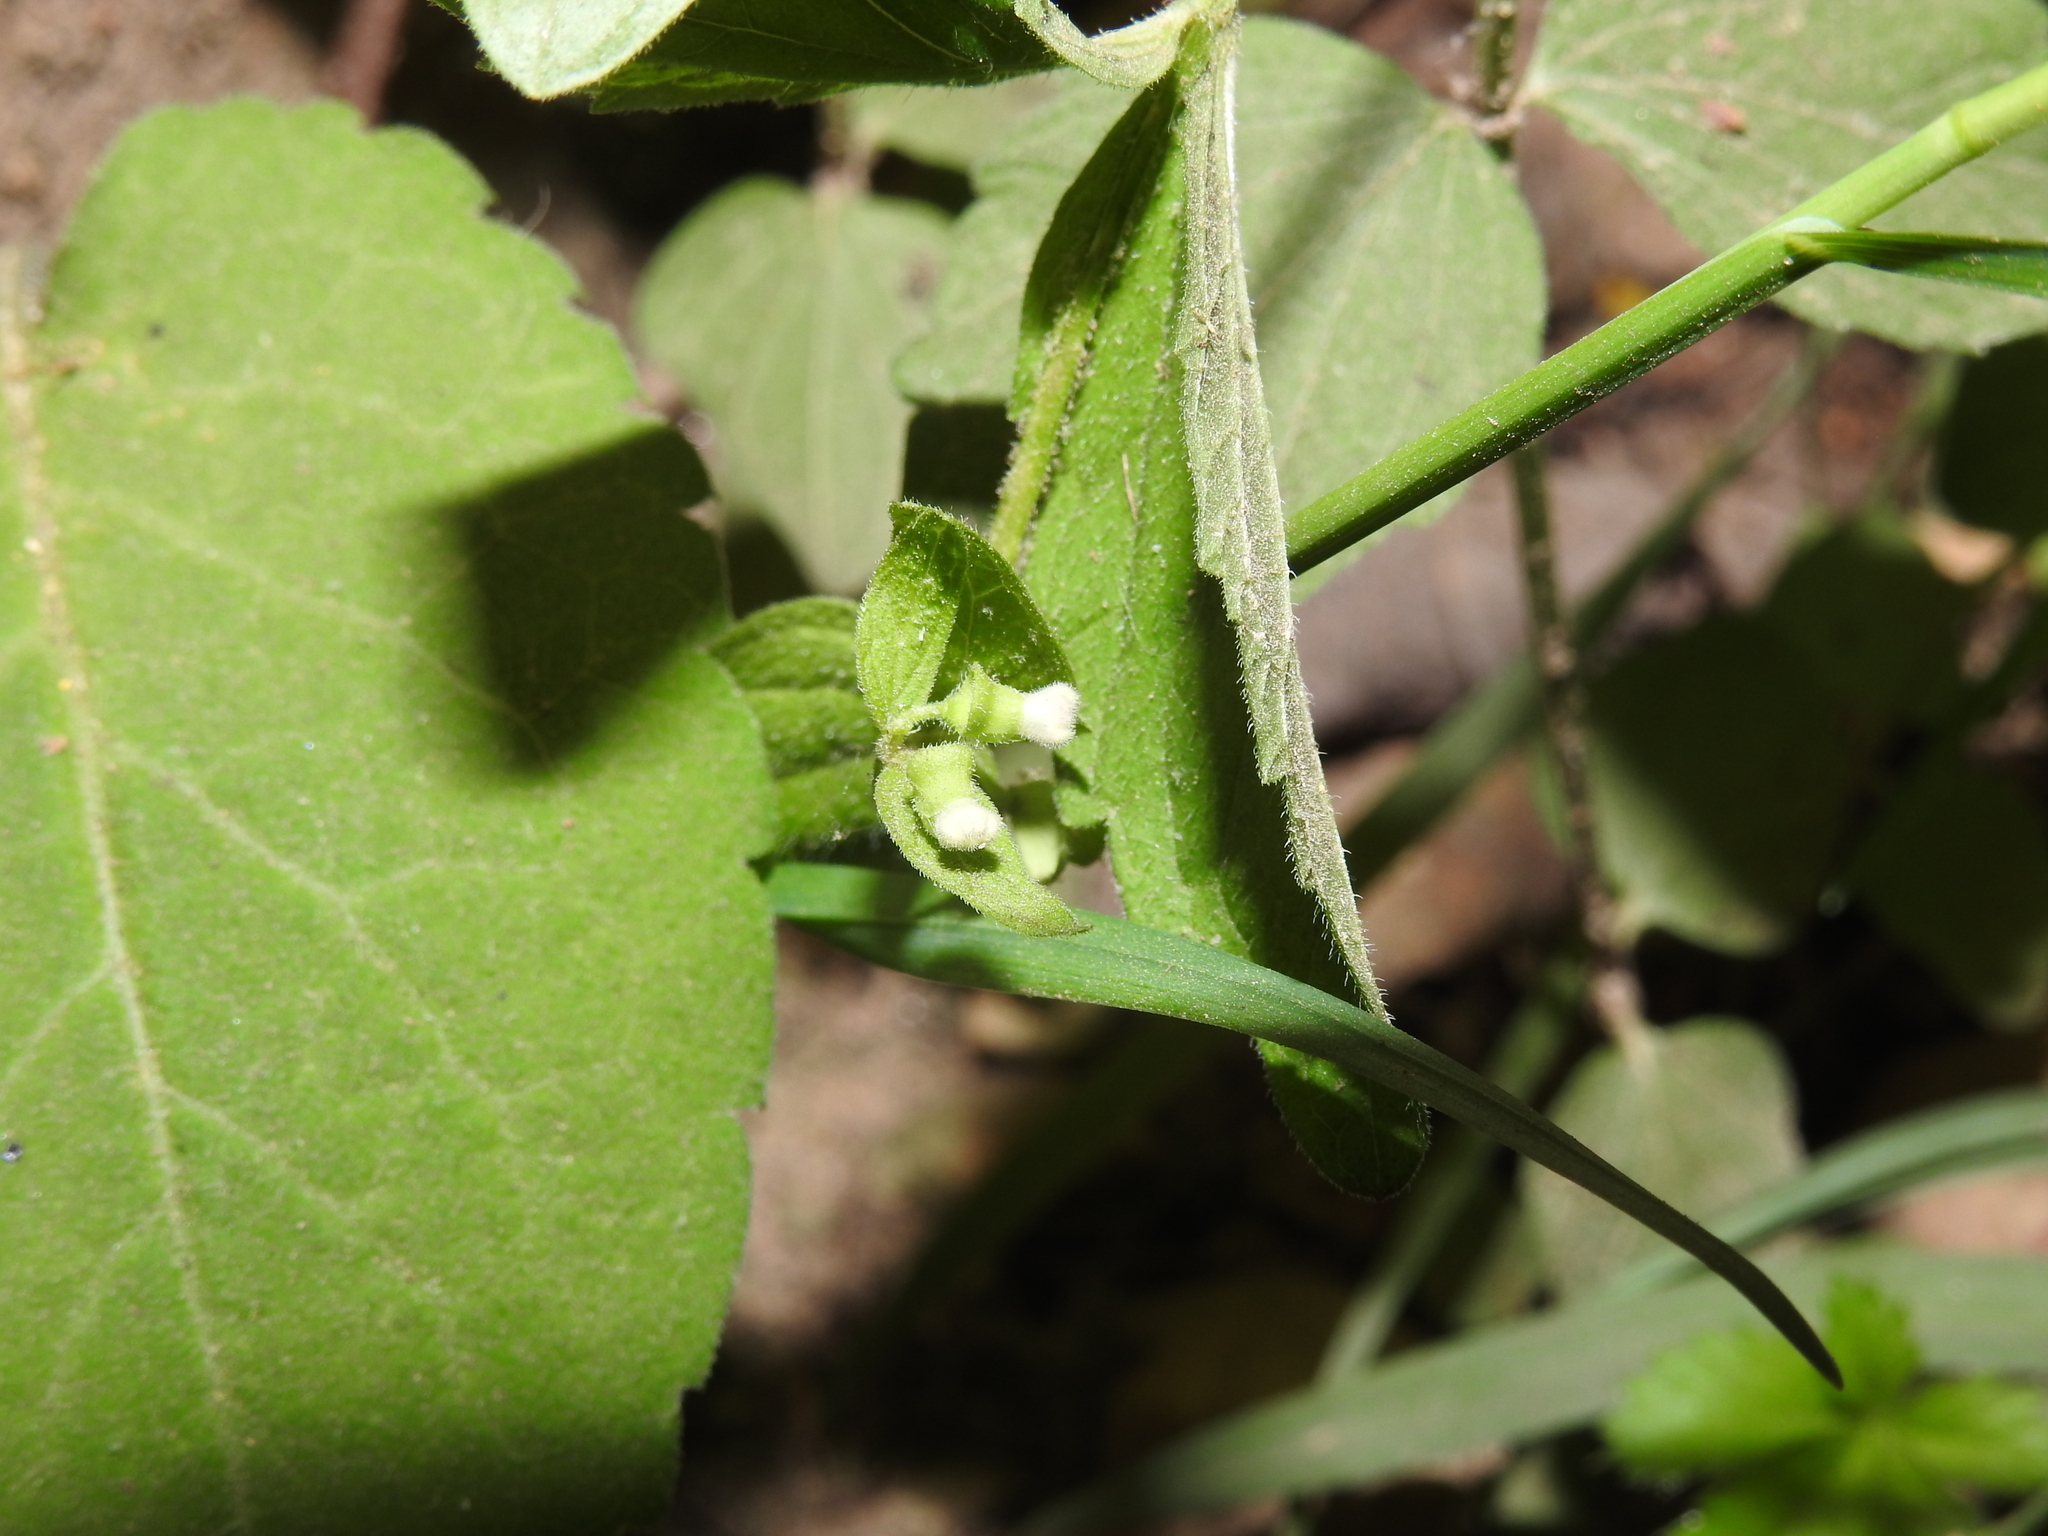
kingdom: Plantae
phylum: Tracheophyta
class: Magnoliopsida
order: Lamiales
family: Lamiaceae
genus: Scutellaria
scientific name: Scutellaria nervosa
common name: Bottomland skullcap
